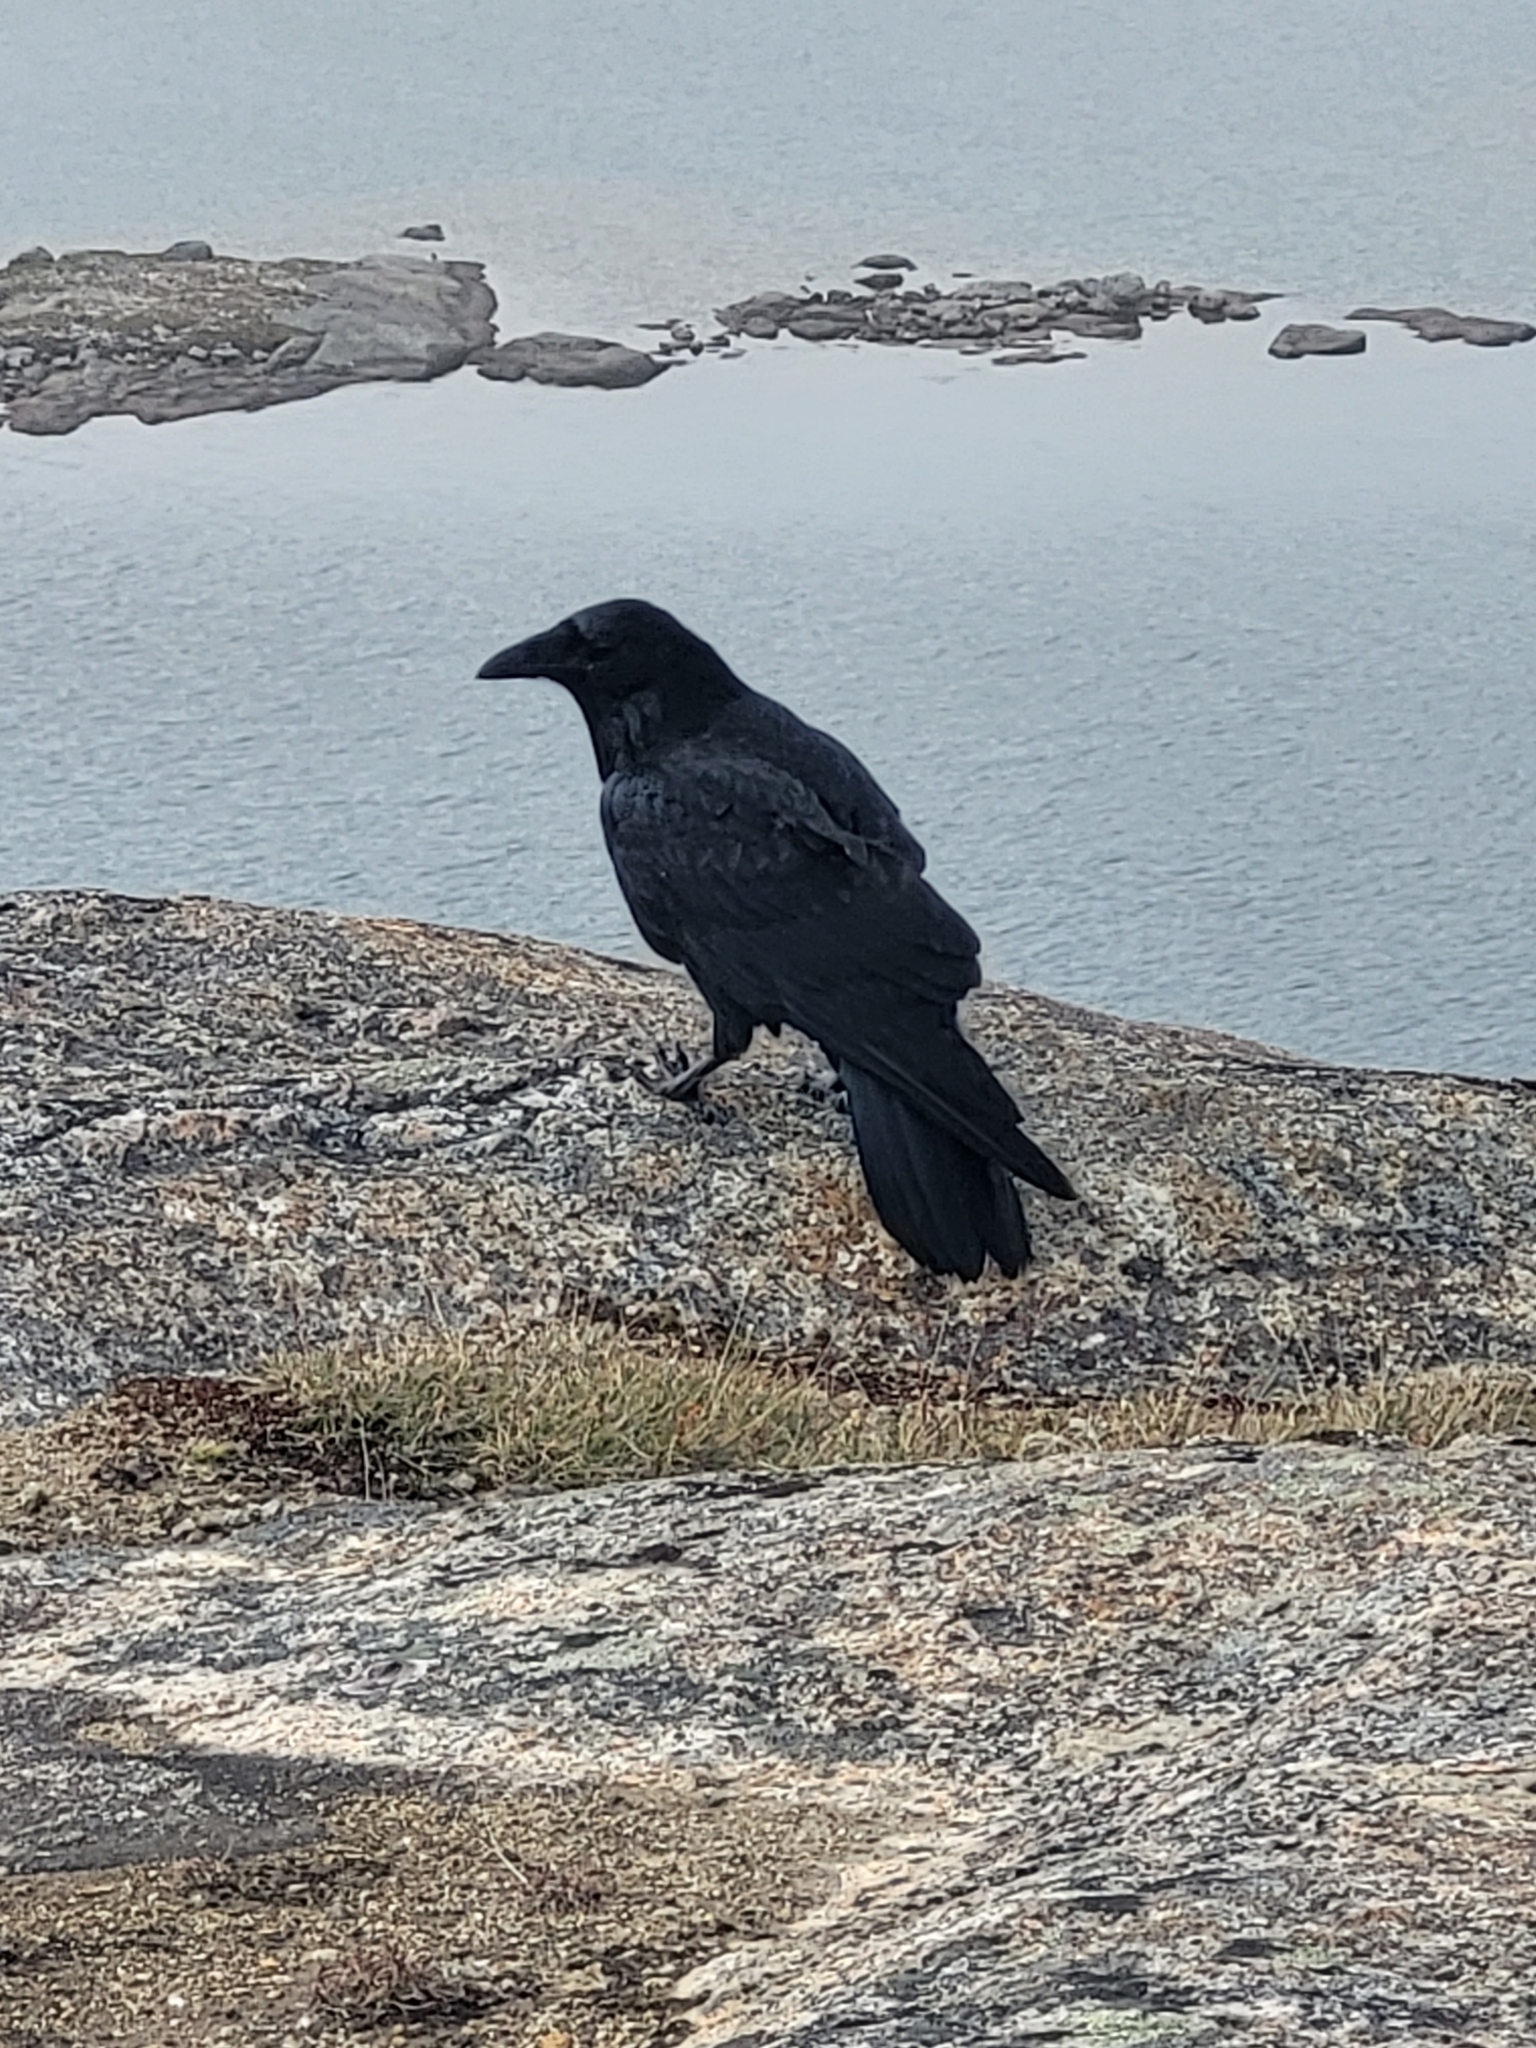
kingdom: Animalia
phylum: Chordata
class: Aves
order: Passeriformes
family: Corvidae
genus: Corvus
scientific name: Corvus corax
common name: Common raven
